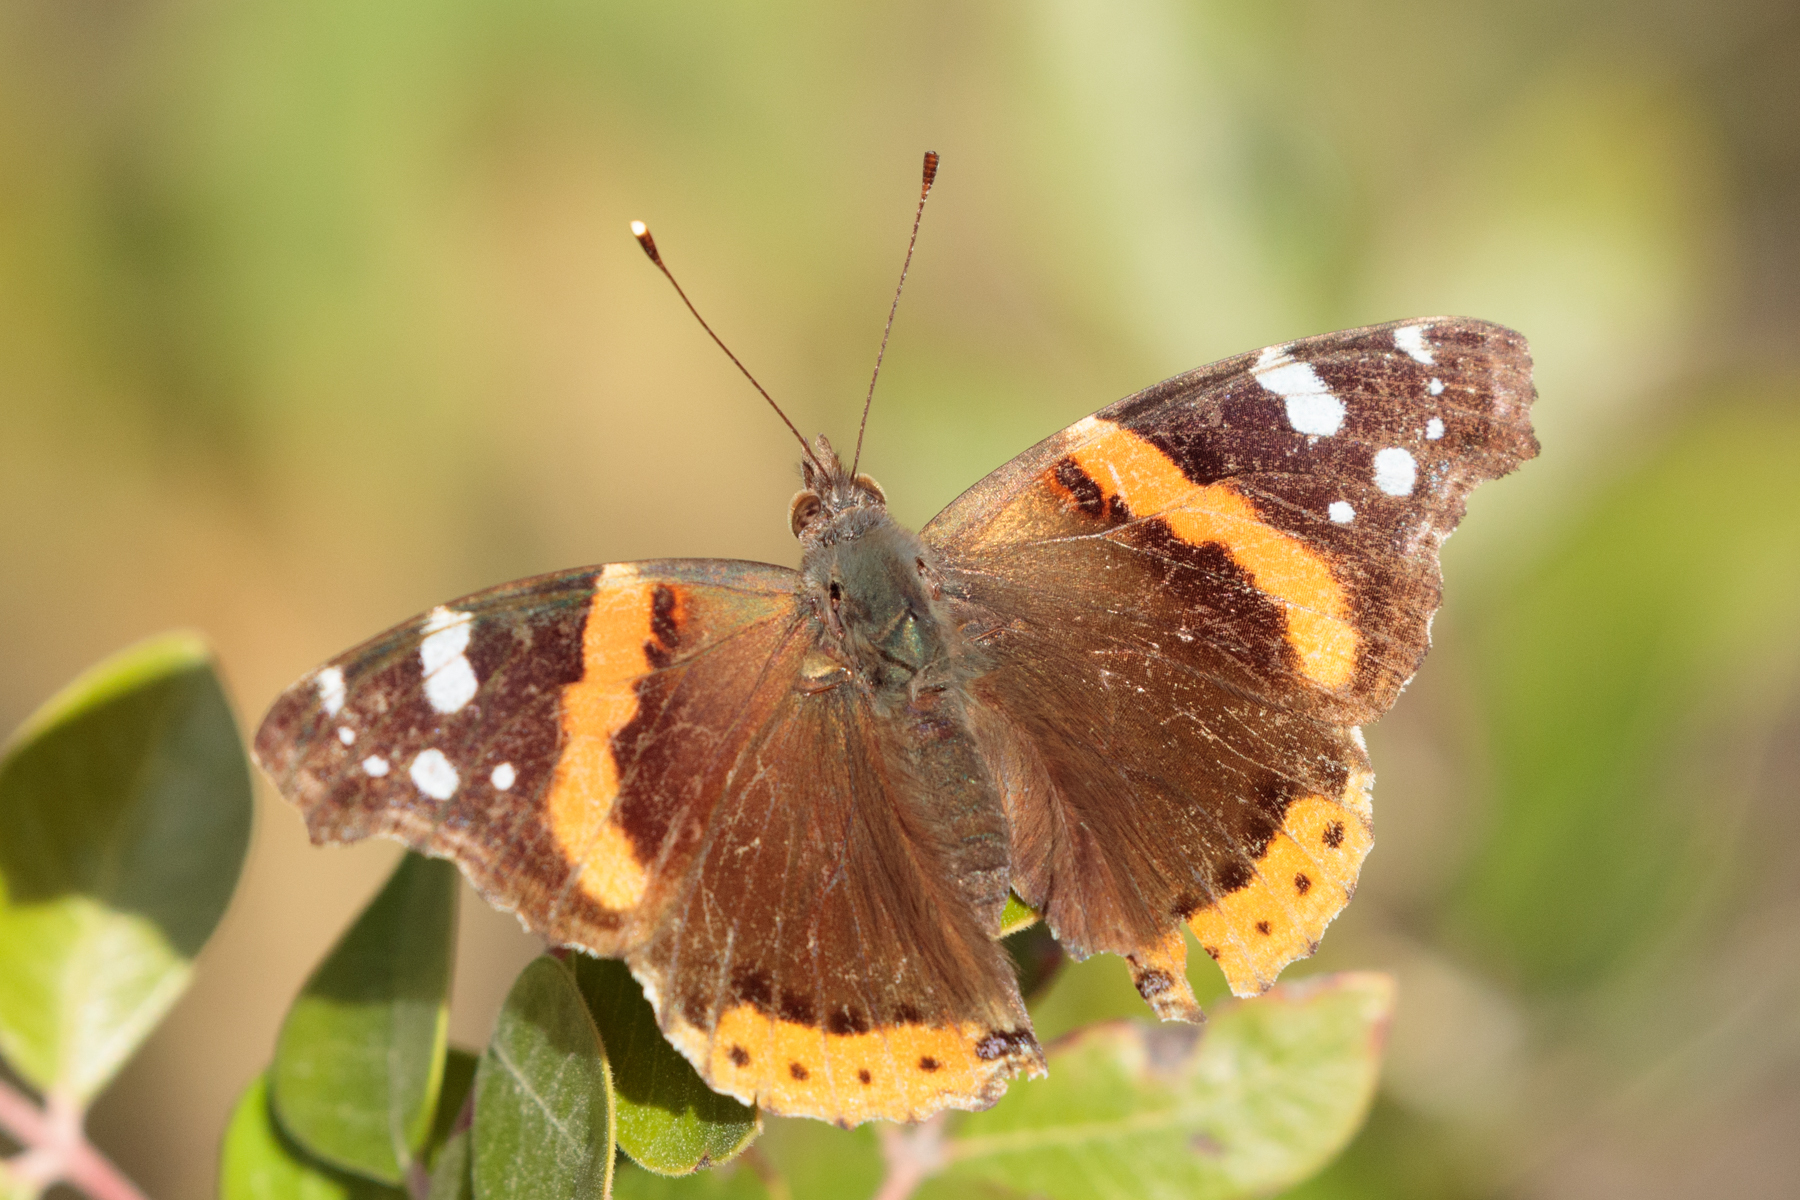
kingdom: Animalia
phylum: Arthropoda
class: Insecta
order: Lepidoptera
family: Nymphalidae
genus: Vanessa
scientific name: Vanessa atalanta
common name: Red admiral
